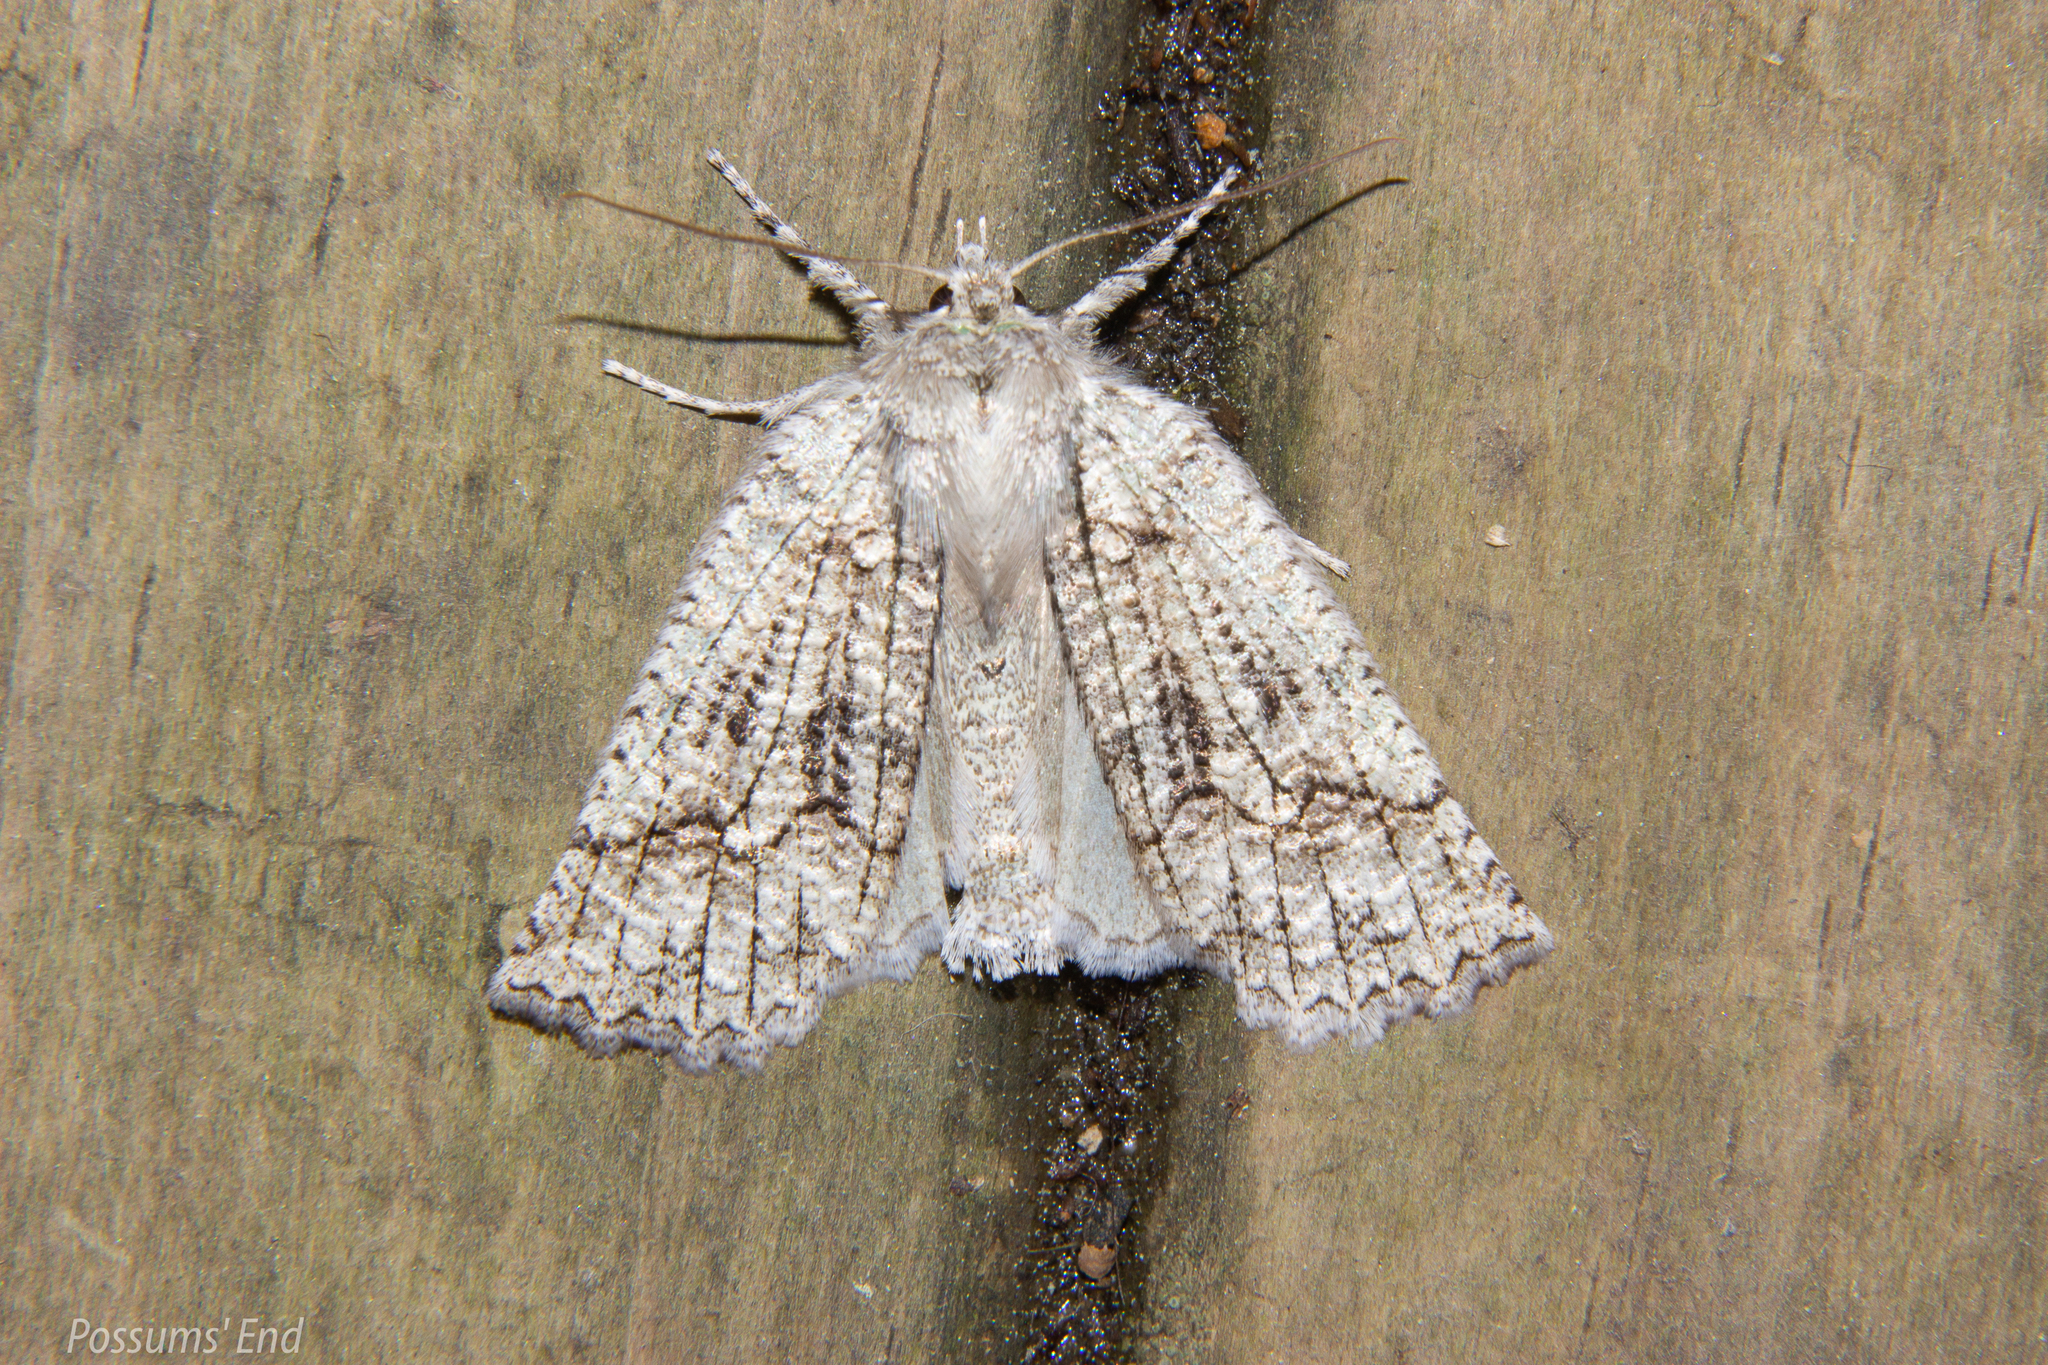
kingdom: Animalia
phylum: Arthropoda
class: Insecta
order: Lepidoptera
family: Geometridae
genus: Declana
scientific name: Declana floccosa
